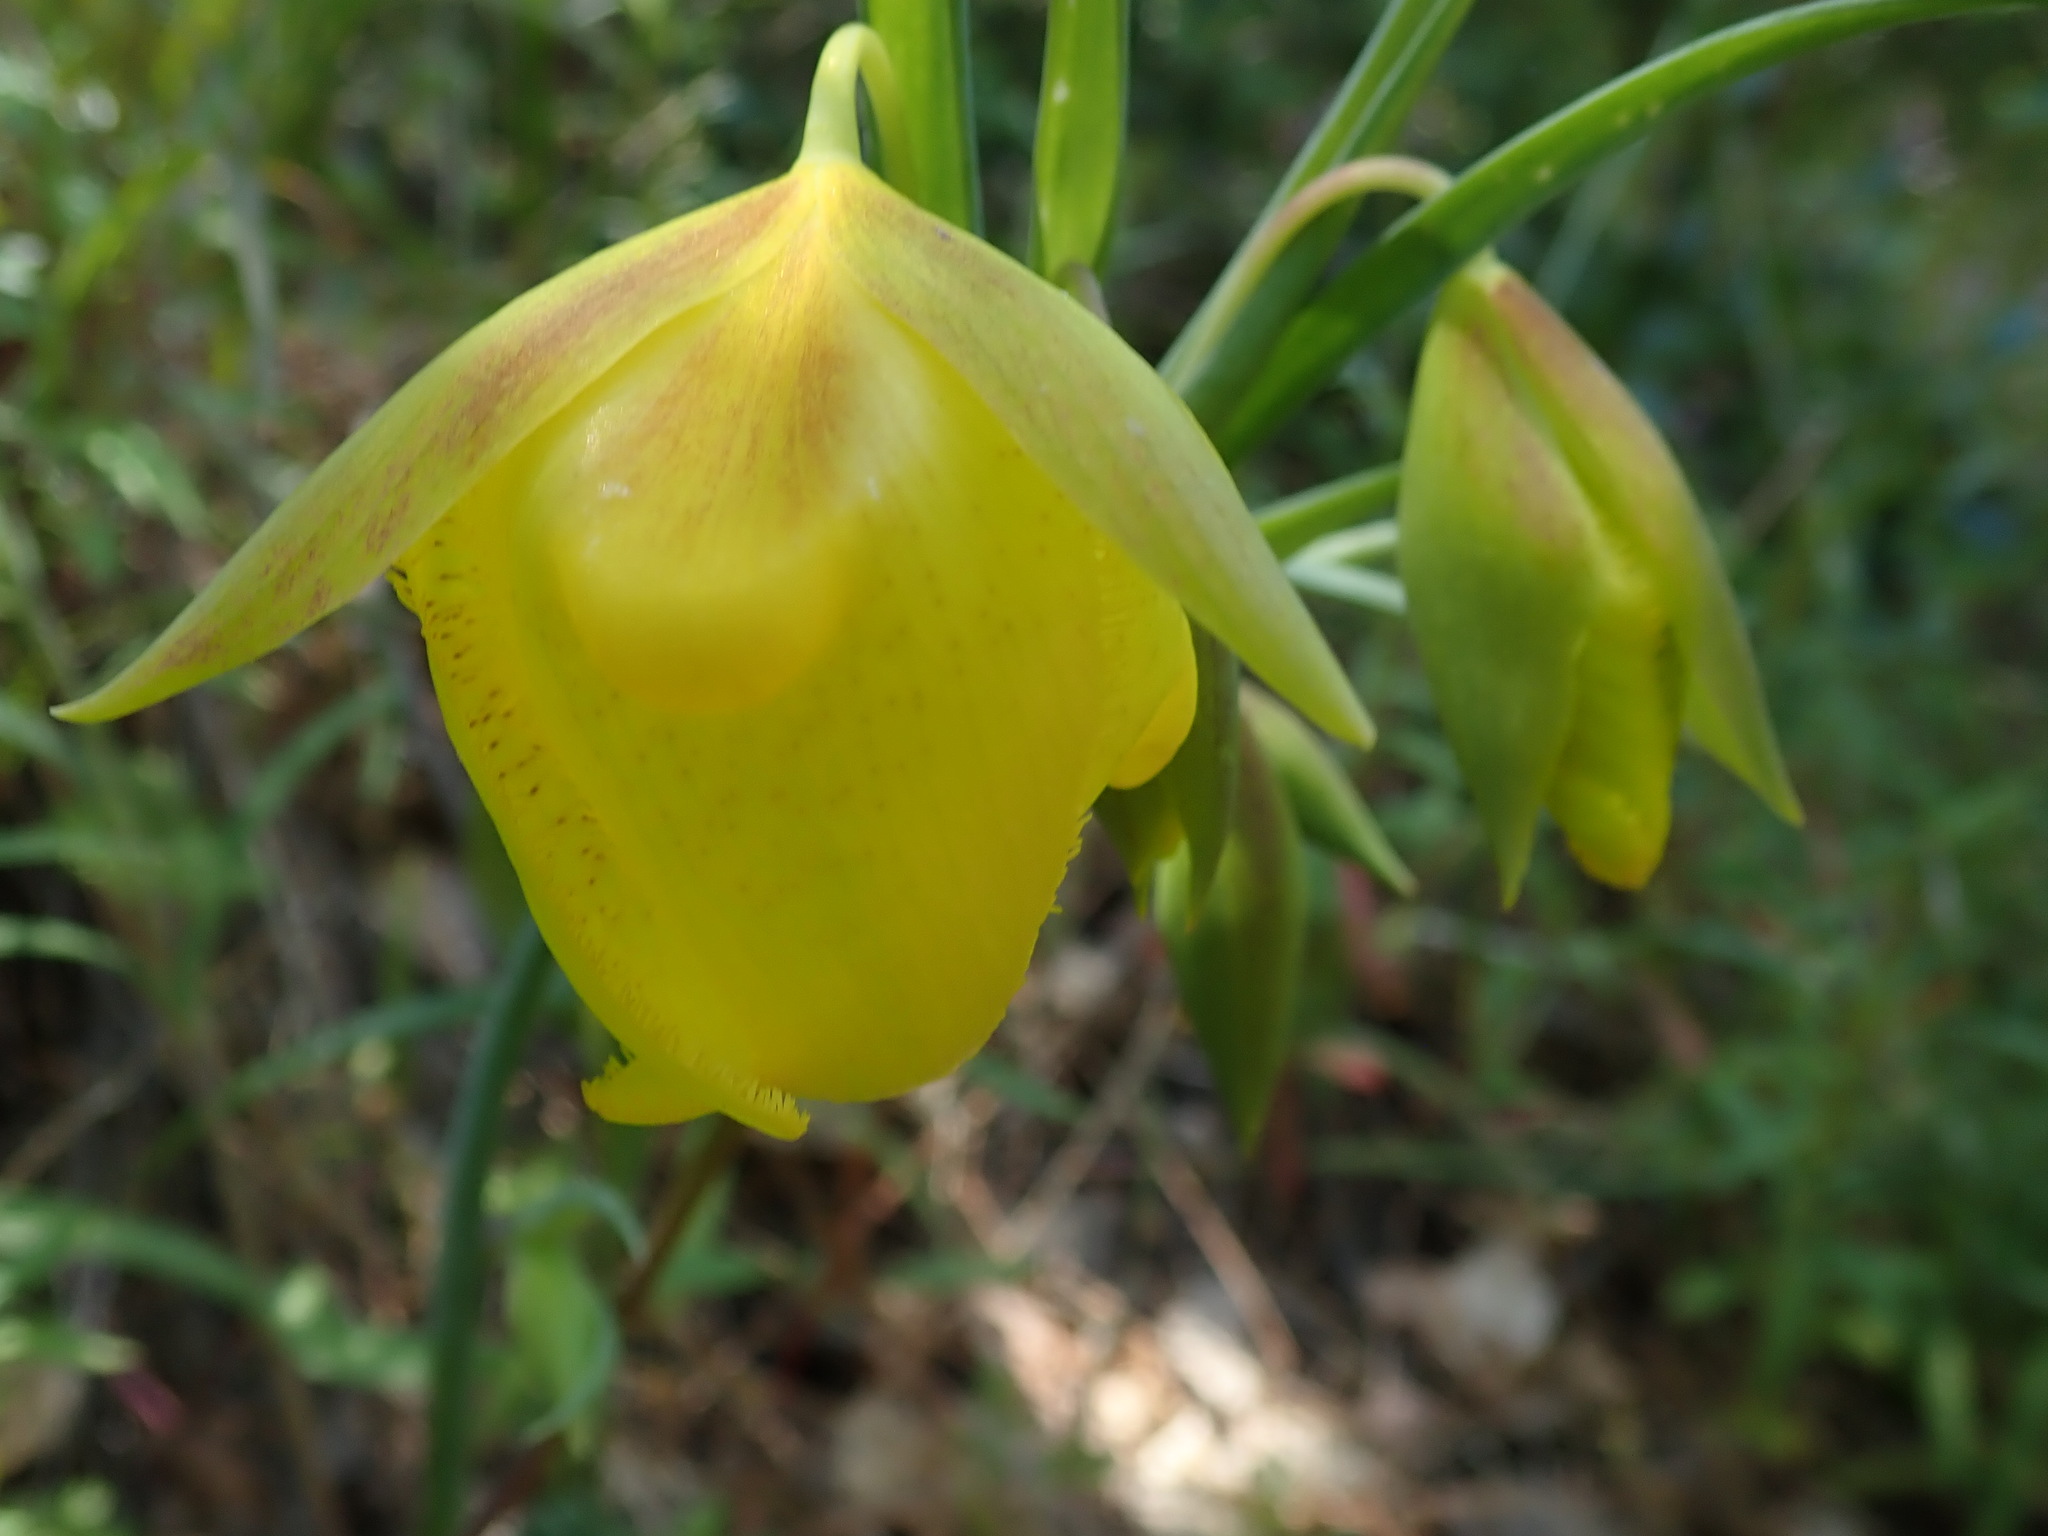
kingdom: Plantae
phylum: Tracheophyta
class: Liliopsida
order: Liliales
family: Liliaceae
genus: Calochortus
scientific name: Calochortus pulchellus
